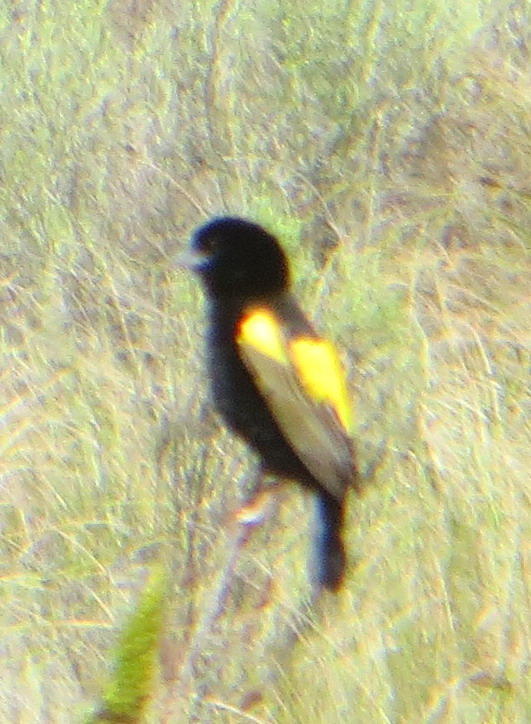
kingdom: Animalia
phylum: Chordata
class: Aves
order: Passeriformes
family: Ploceidae
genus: Euplectes
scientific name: Euplectes capensis
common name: Yellow bishop
